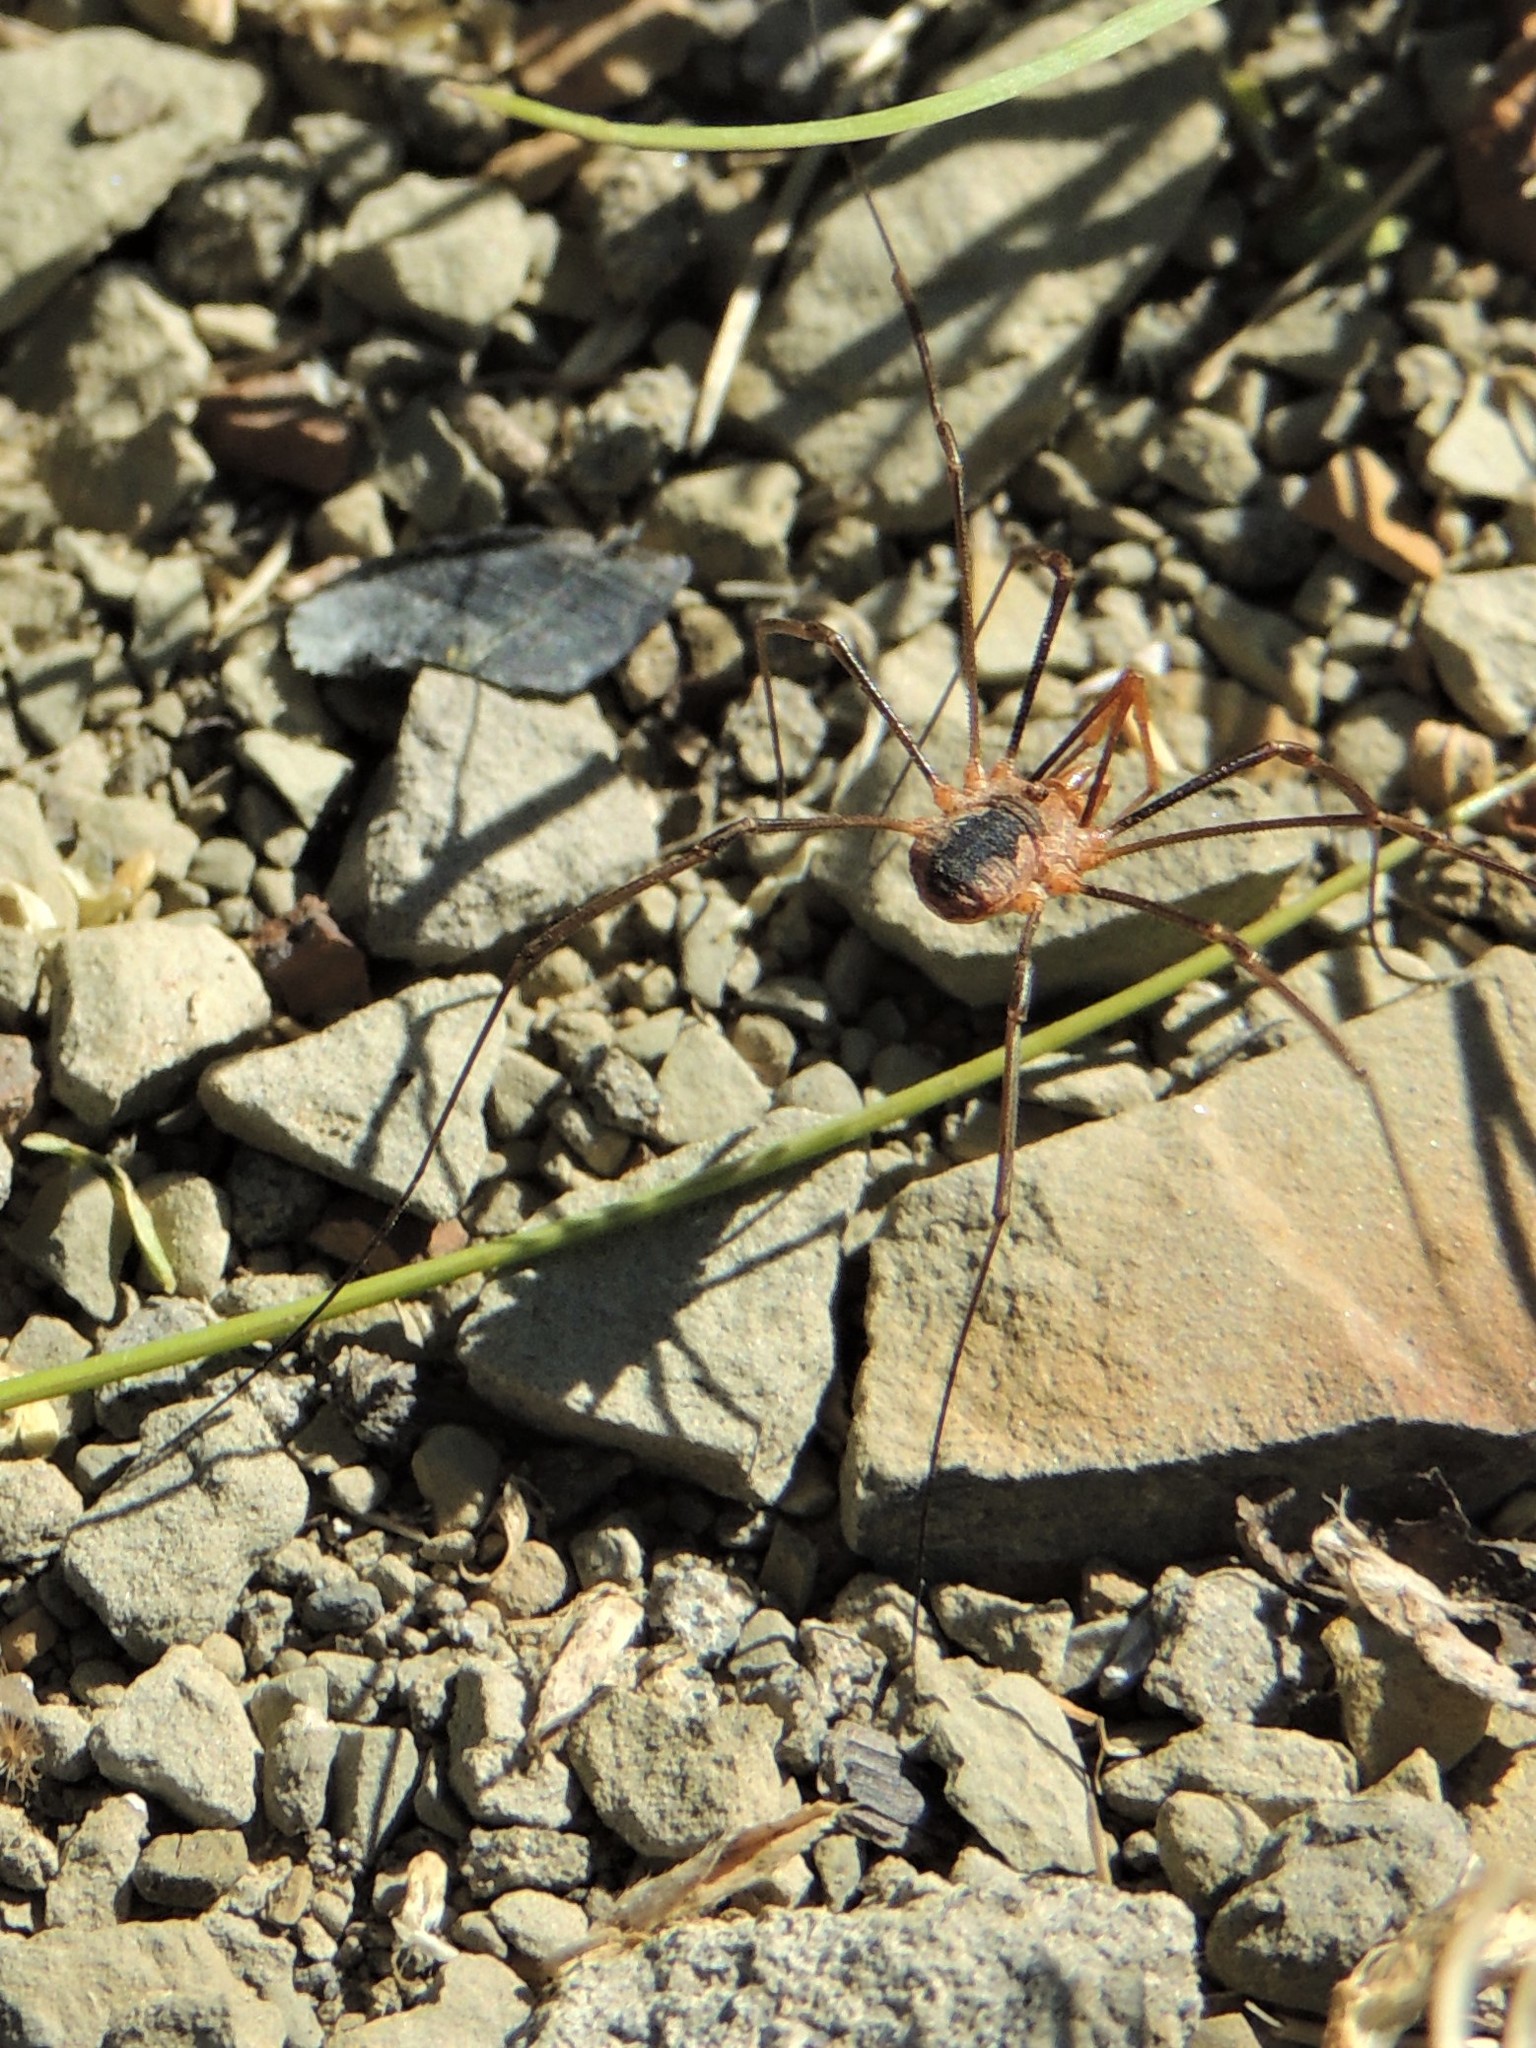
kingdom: Animalia
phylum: Arthropoda
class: Arachnida
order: Opiliones
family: Phalangiidae
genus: Phalangium
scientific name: Phalangium opilio
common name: Daddy longleg
